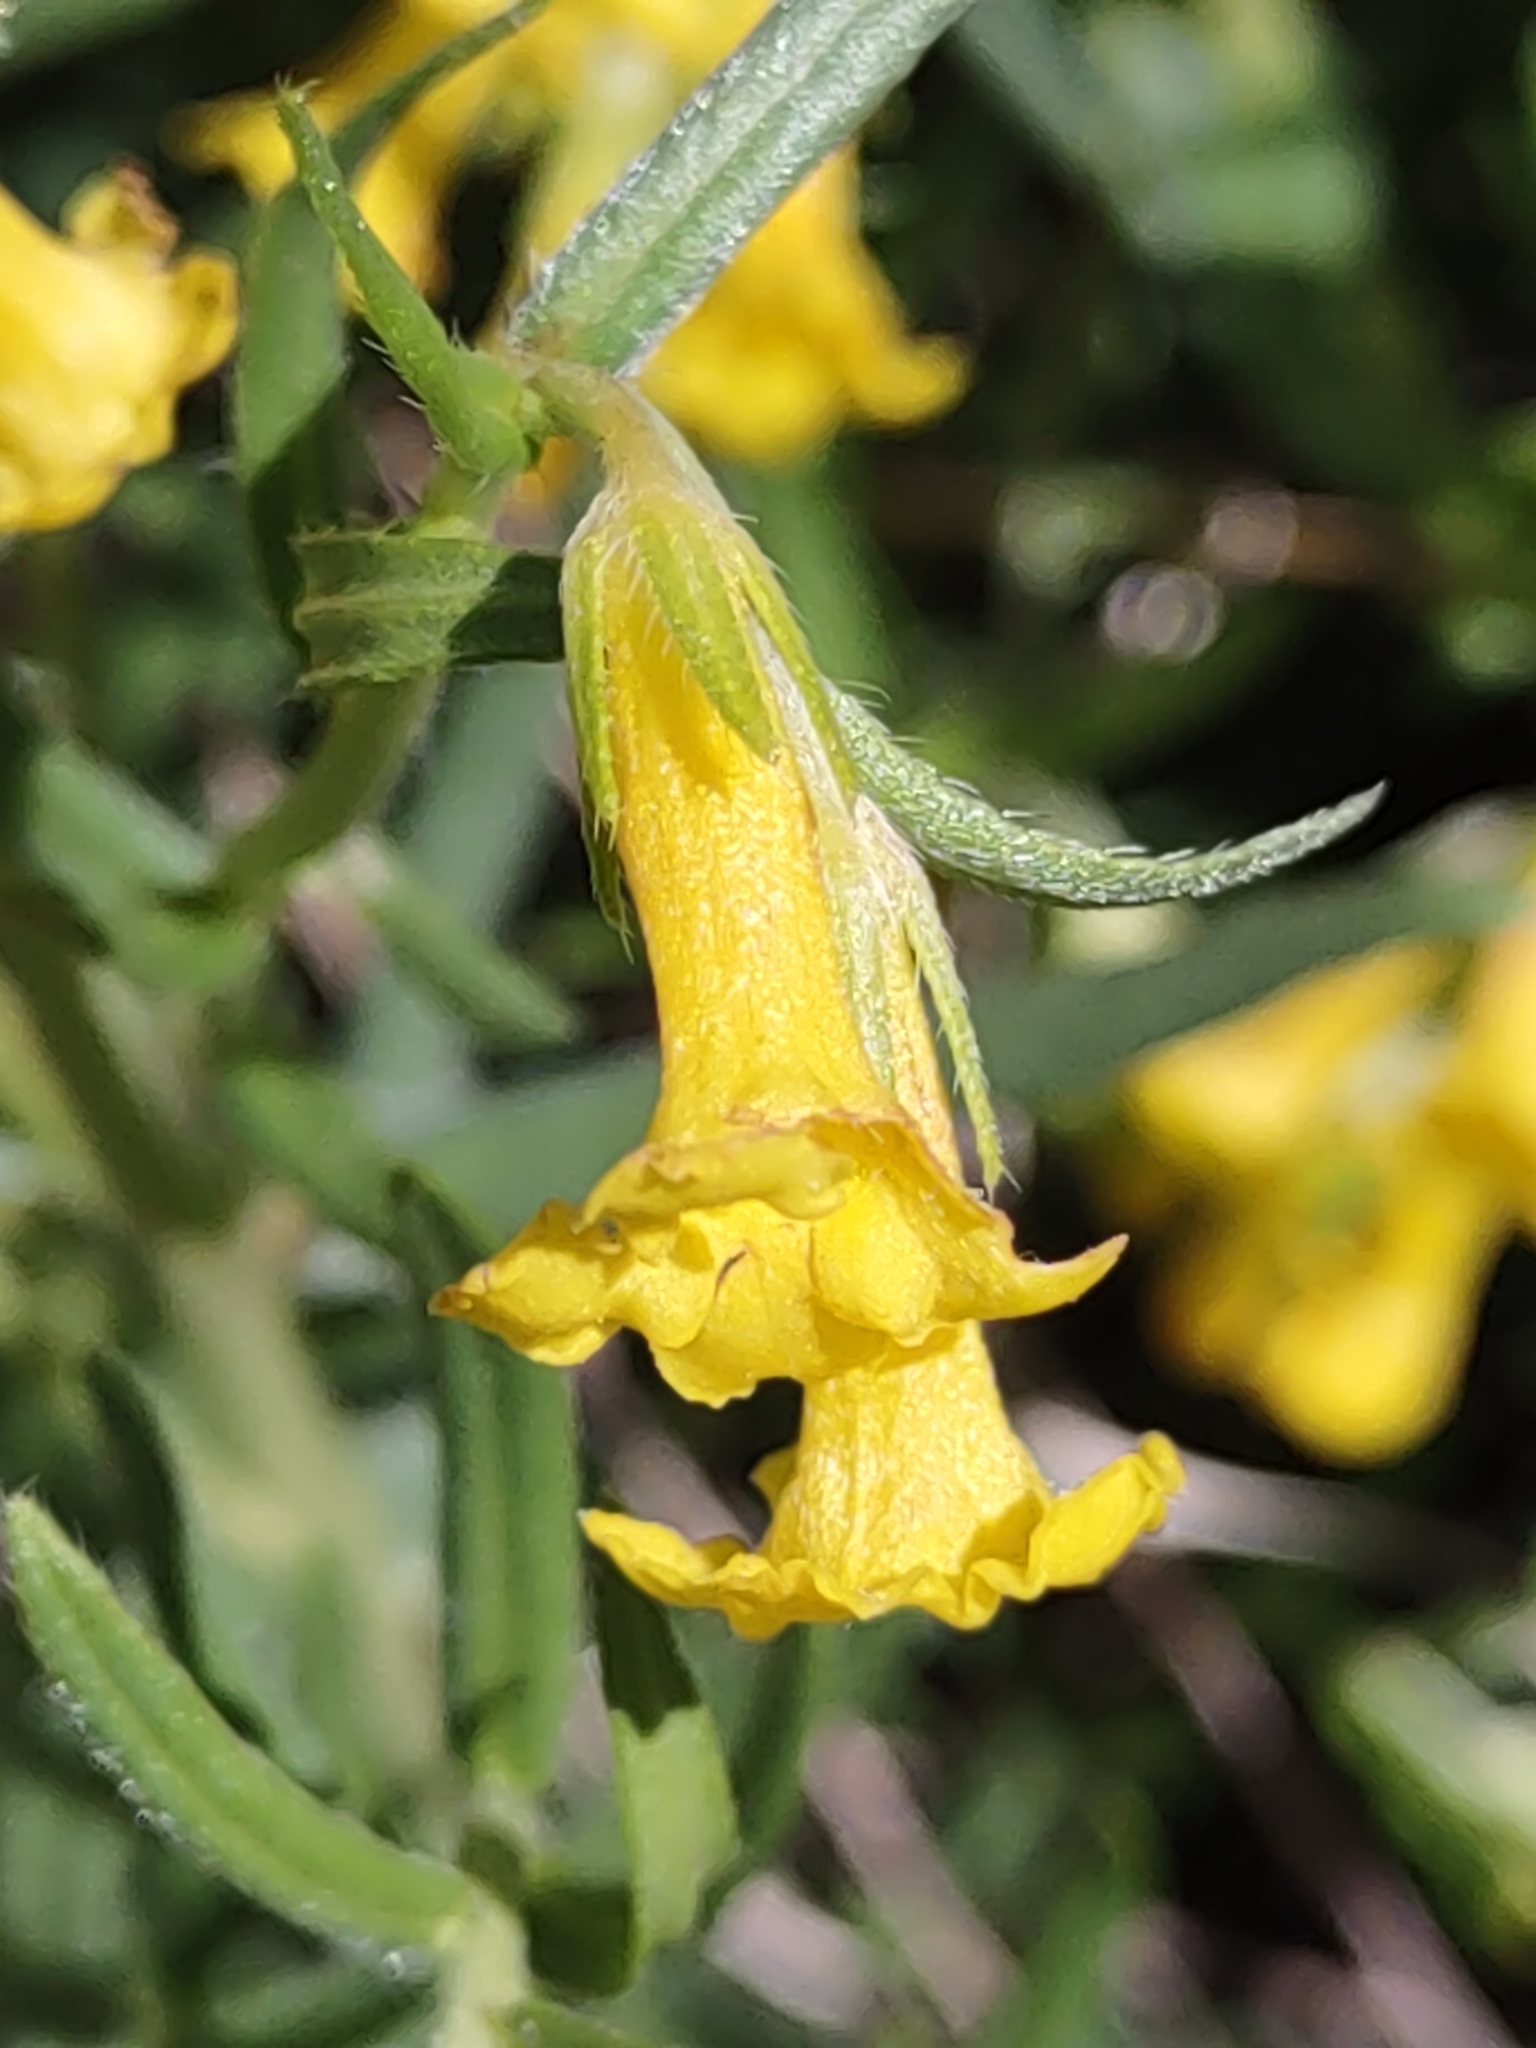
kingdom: Plantae
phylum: Tracheophyta
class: Magnoliopsida
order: Boraginales
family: Boraginaceae
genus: Lithospermum
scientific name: Lithospermum multiflorum
